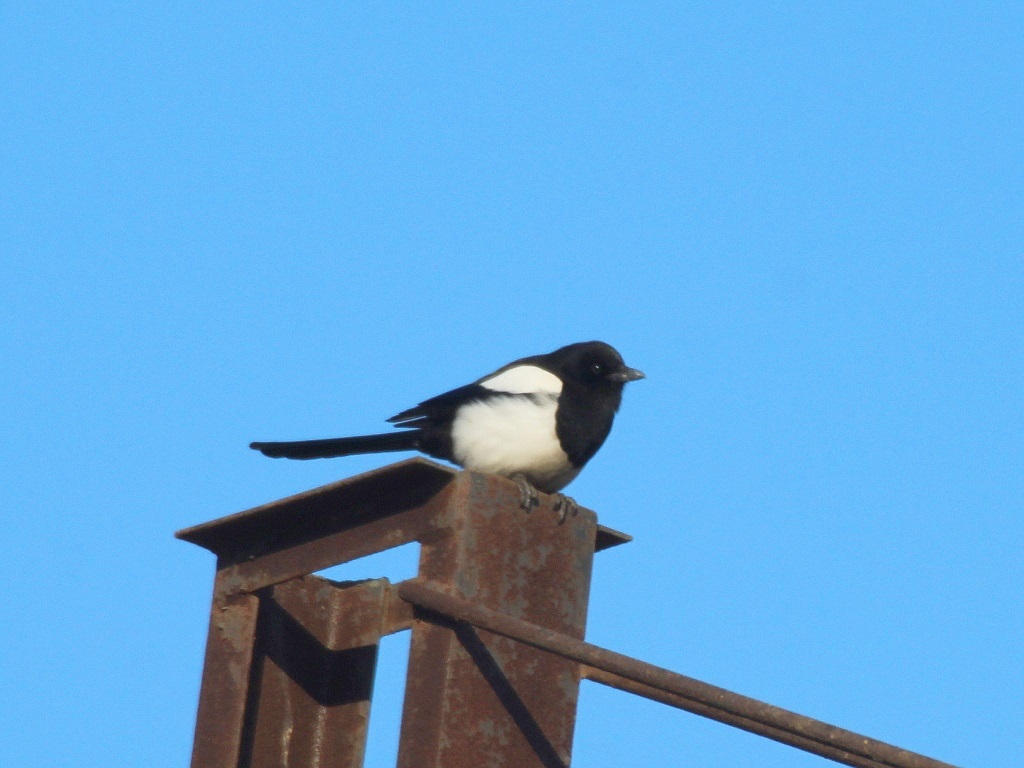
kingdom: Animalia
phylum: Chordata
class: Aves
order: Passeriformes
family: Corvidae
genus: Pica
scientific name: Pica serica
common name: Oriental magpie
